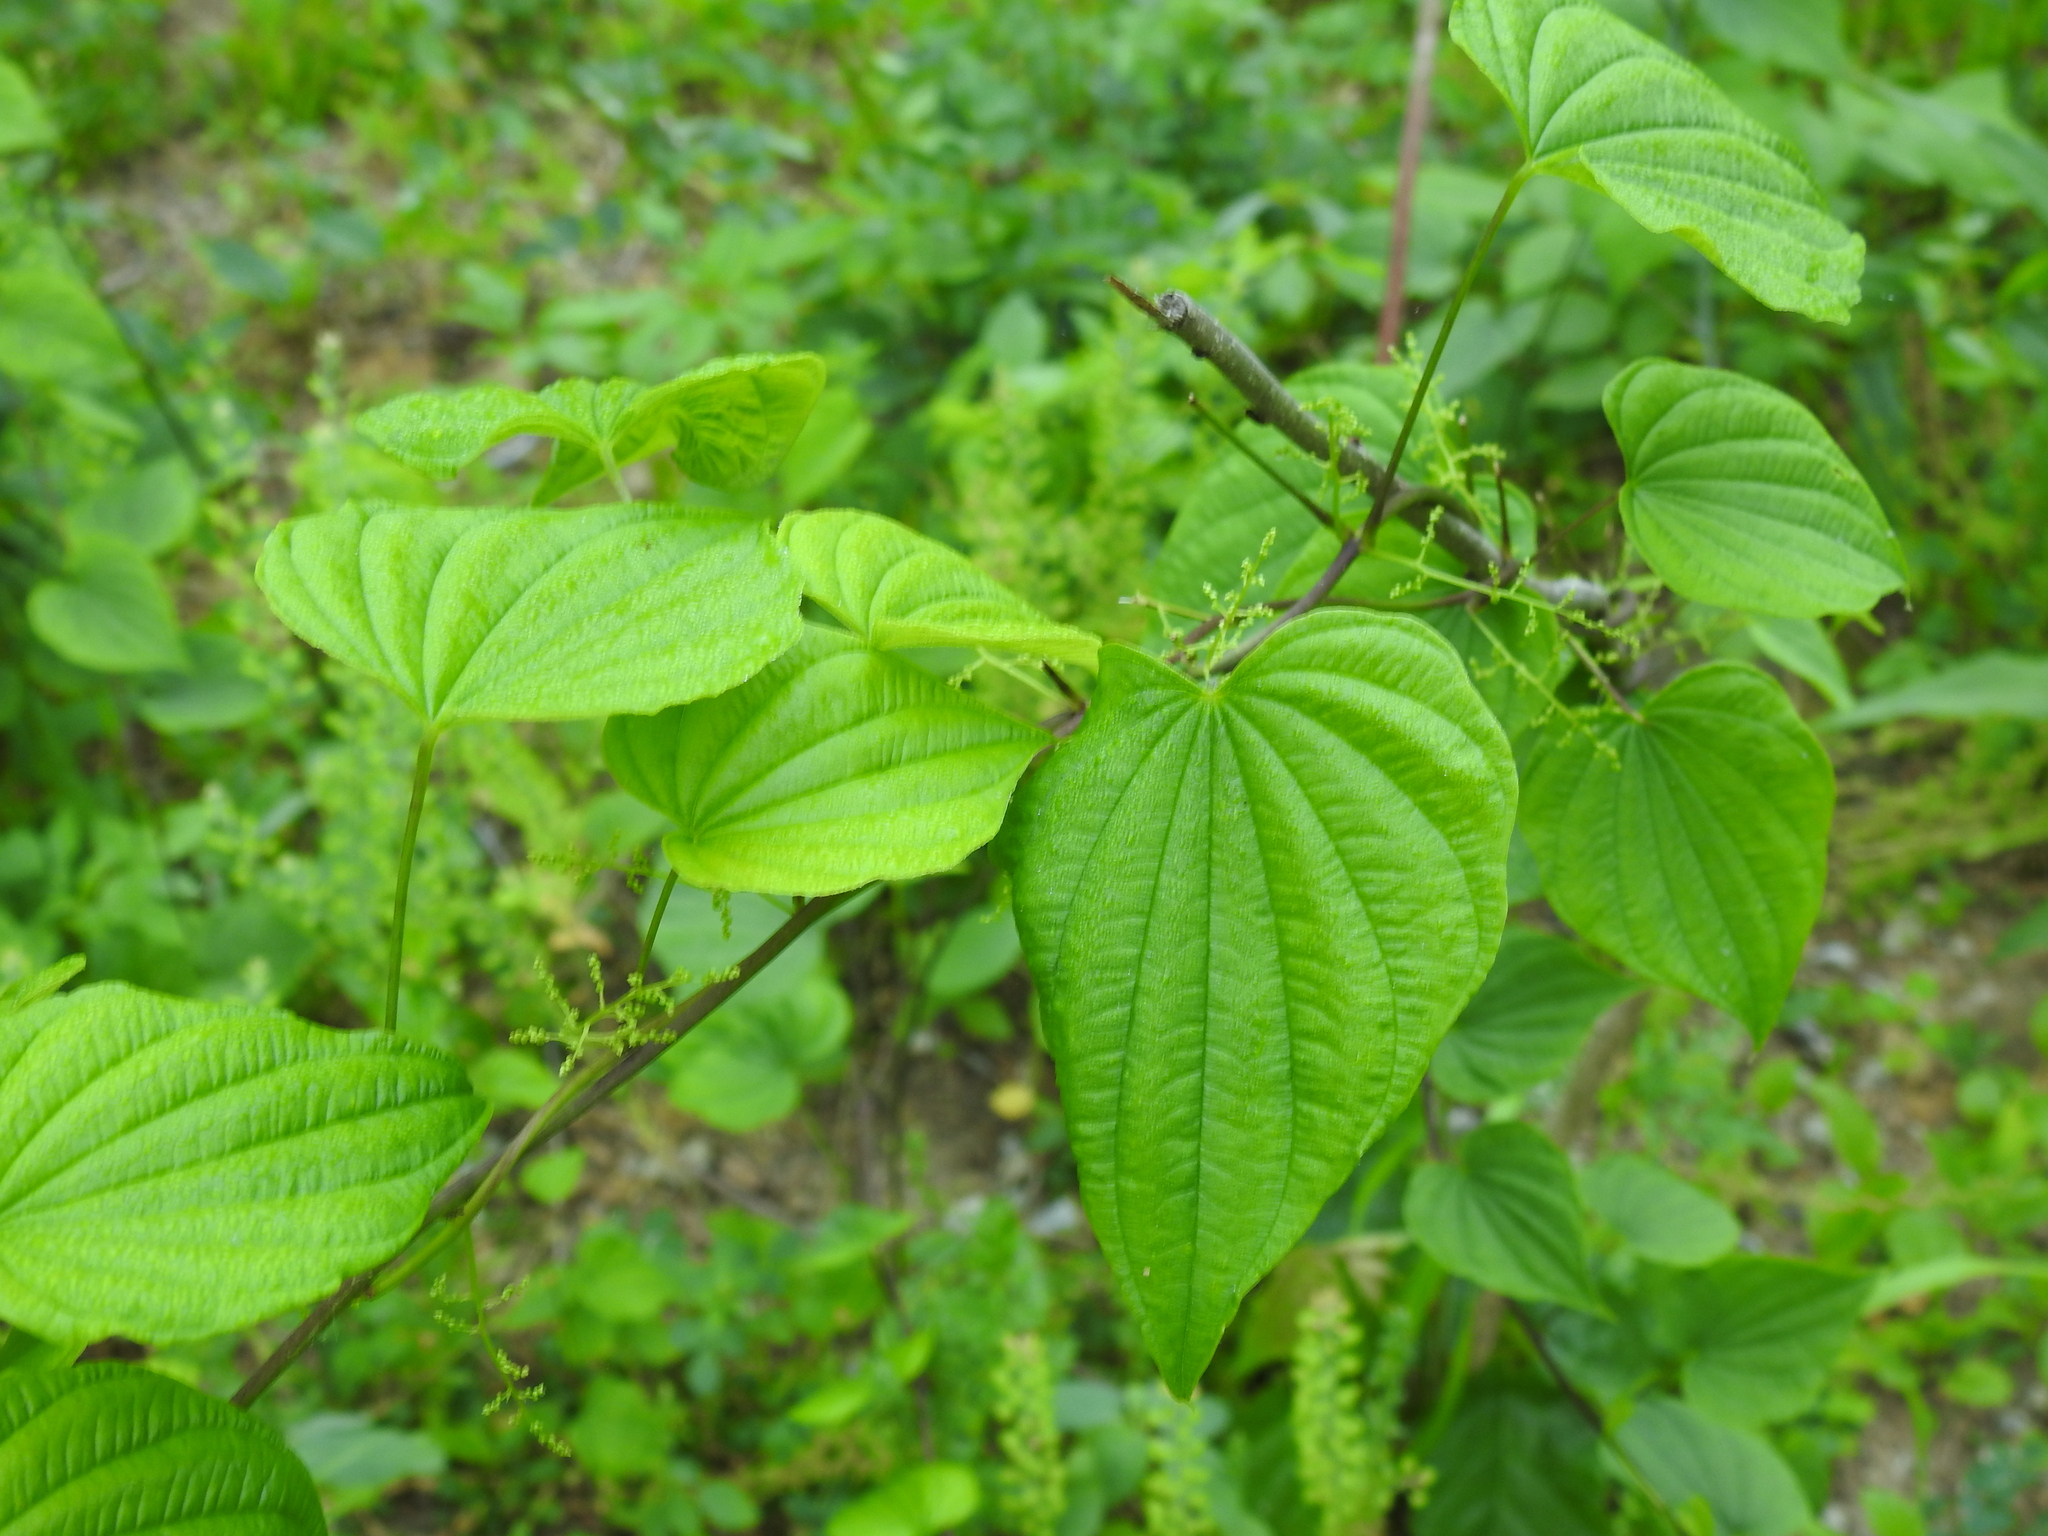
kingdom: Plantae
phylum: Tracheophyta
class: Liliopsida
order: Dioscoreales
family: Dioscoreaceae
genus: Dioscorea
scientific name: Dioscorea villosa
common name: Wild yam
